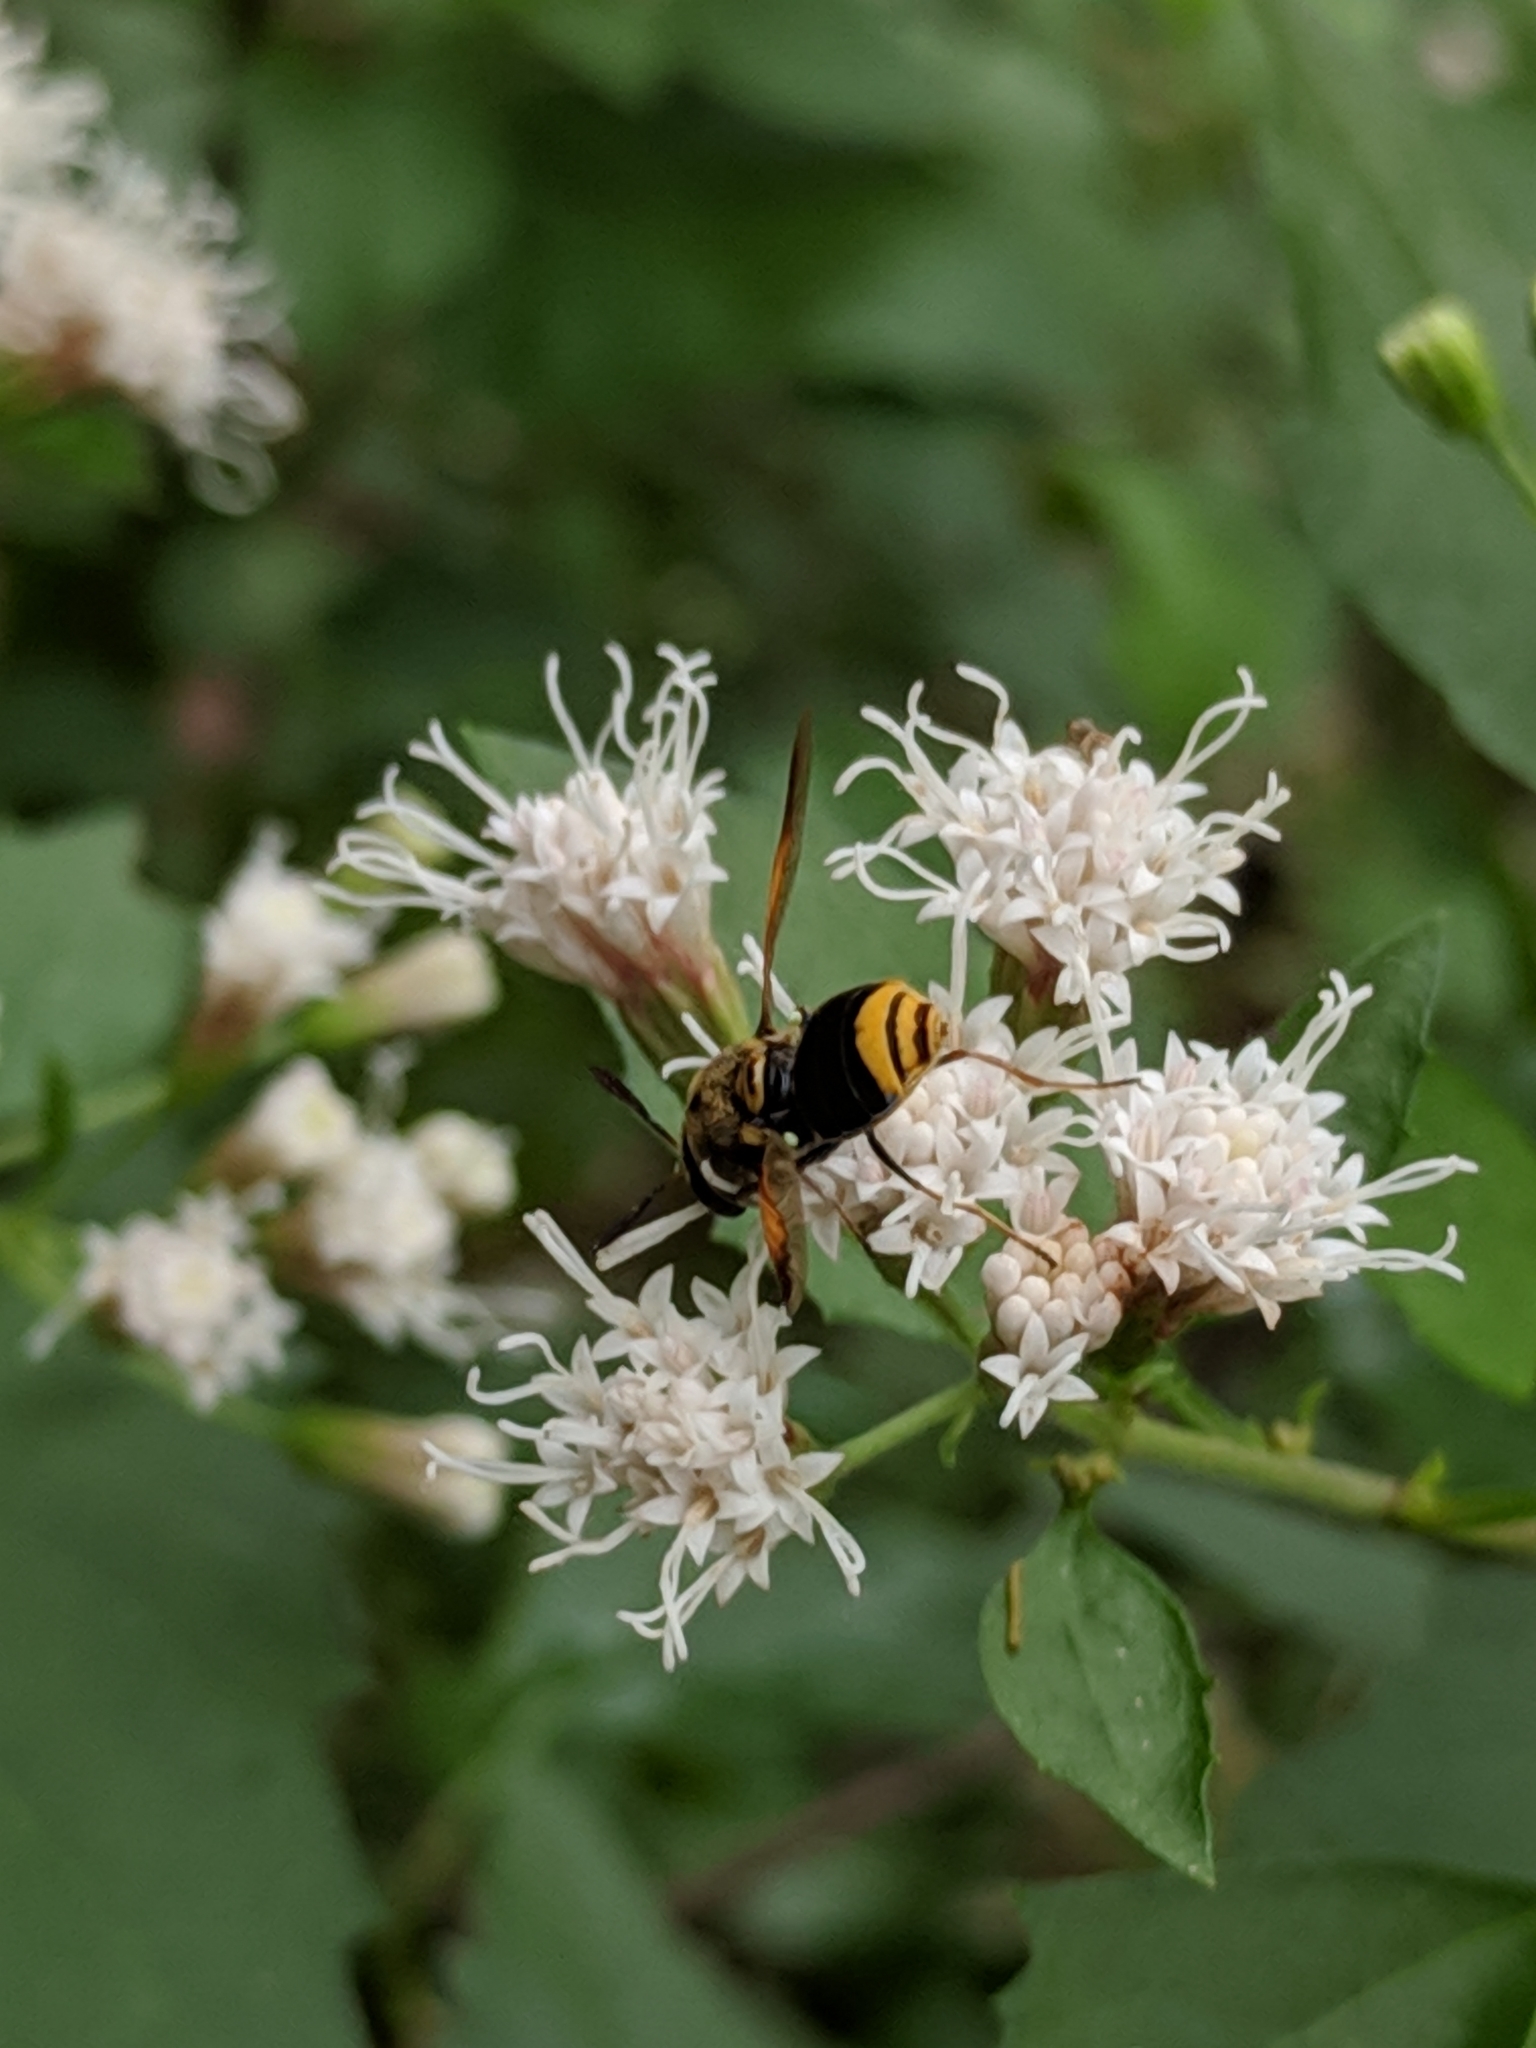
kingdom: Animalia
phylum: Arthropoda
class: Insecta
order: Diptera
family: Stratiomyidae
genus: Hoplitimyia
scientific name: Hoplitimyia mutabilis
